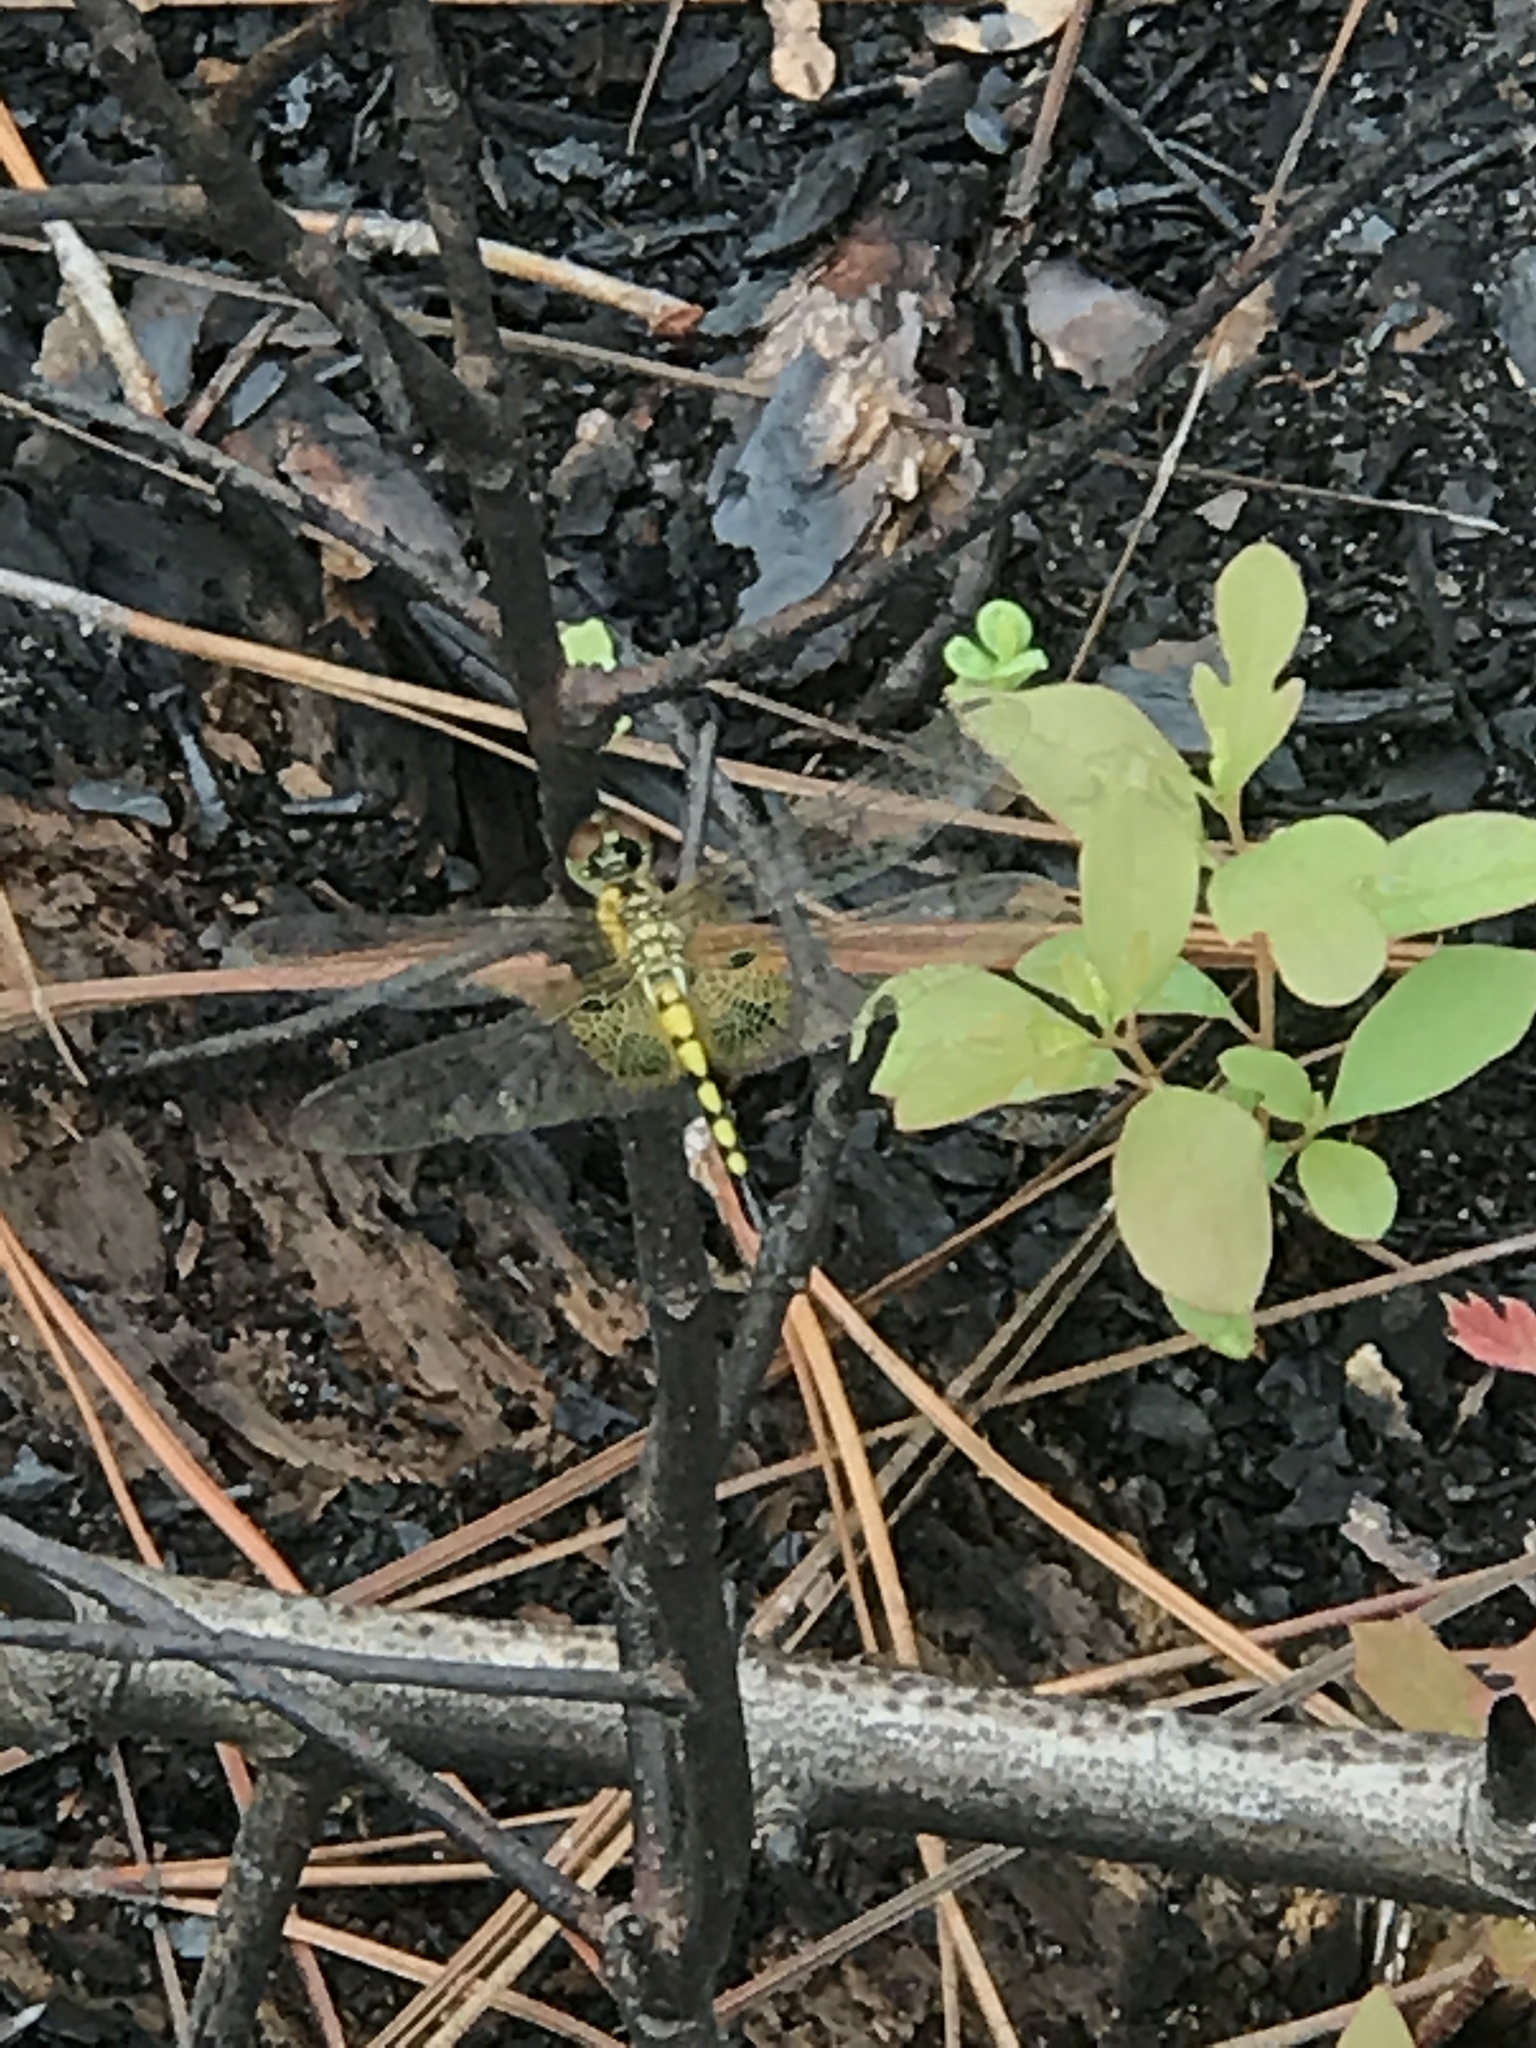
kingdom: Animalia
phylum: Arthropoda
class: Insecta
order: Odonata
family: Libellulidae
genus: Celithemis
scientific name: Celithemis amanda
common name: Amanda's pennant
